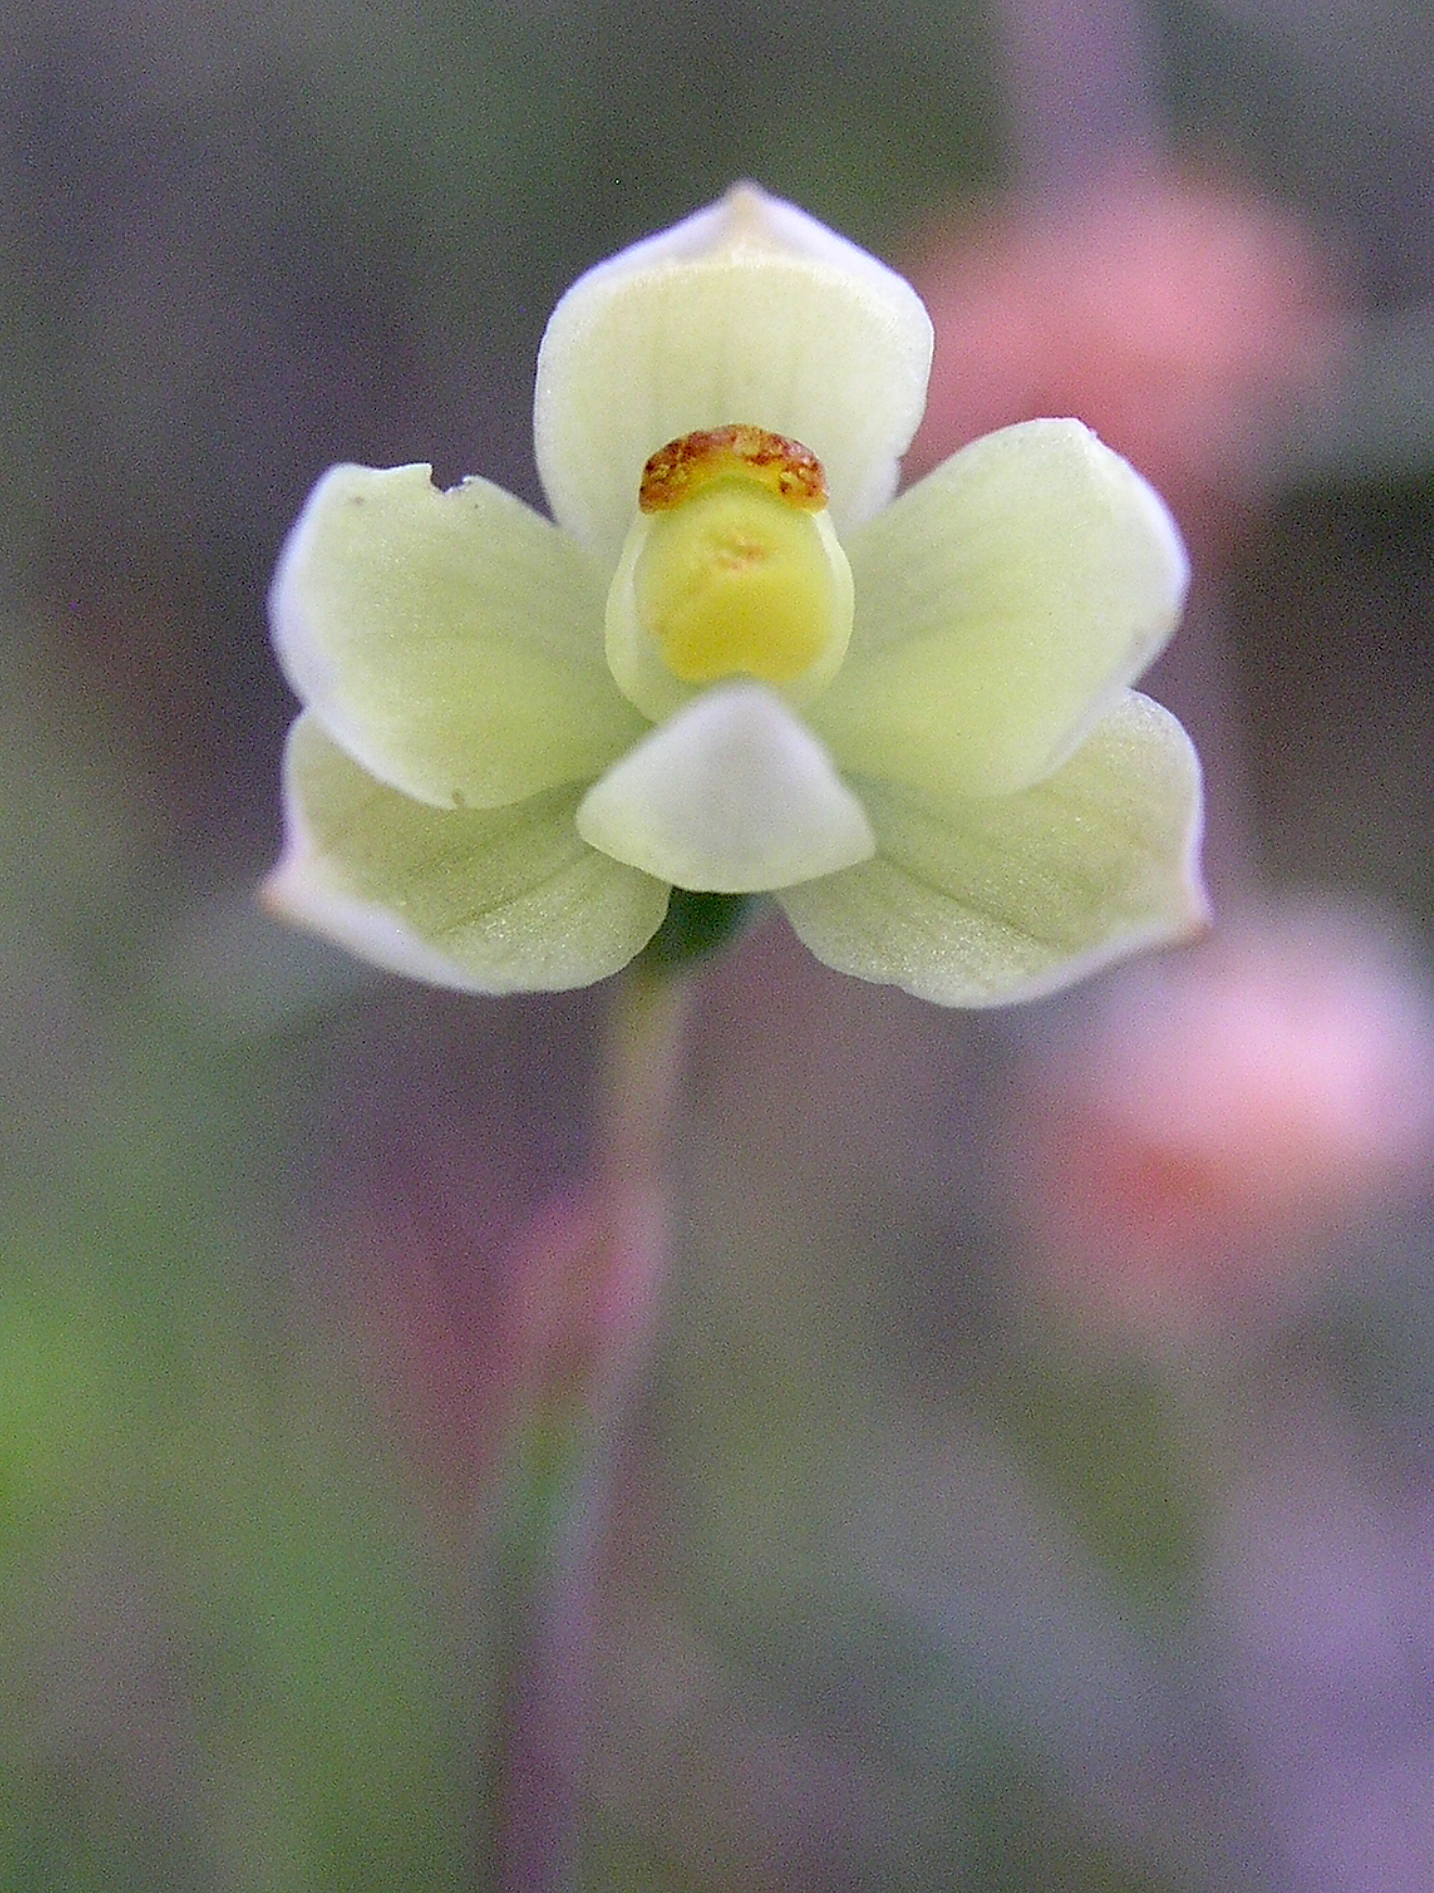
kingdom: Plantae
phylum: Tracheophyta
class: Liliopsida
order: Asparagales
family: Orchidaceae
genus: Thelymitra
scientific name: Thelymitra flexuosa
